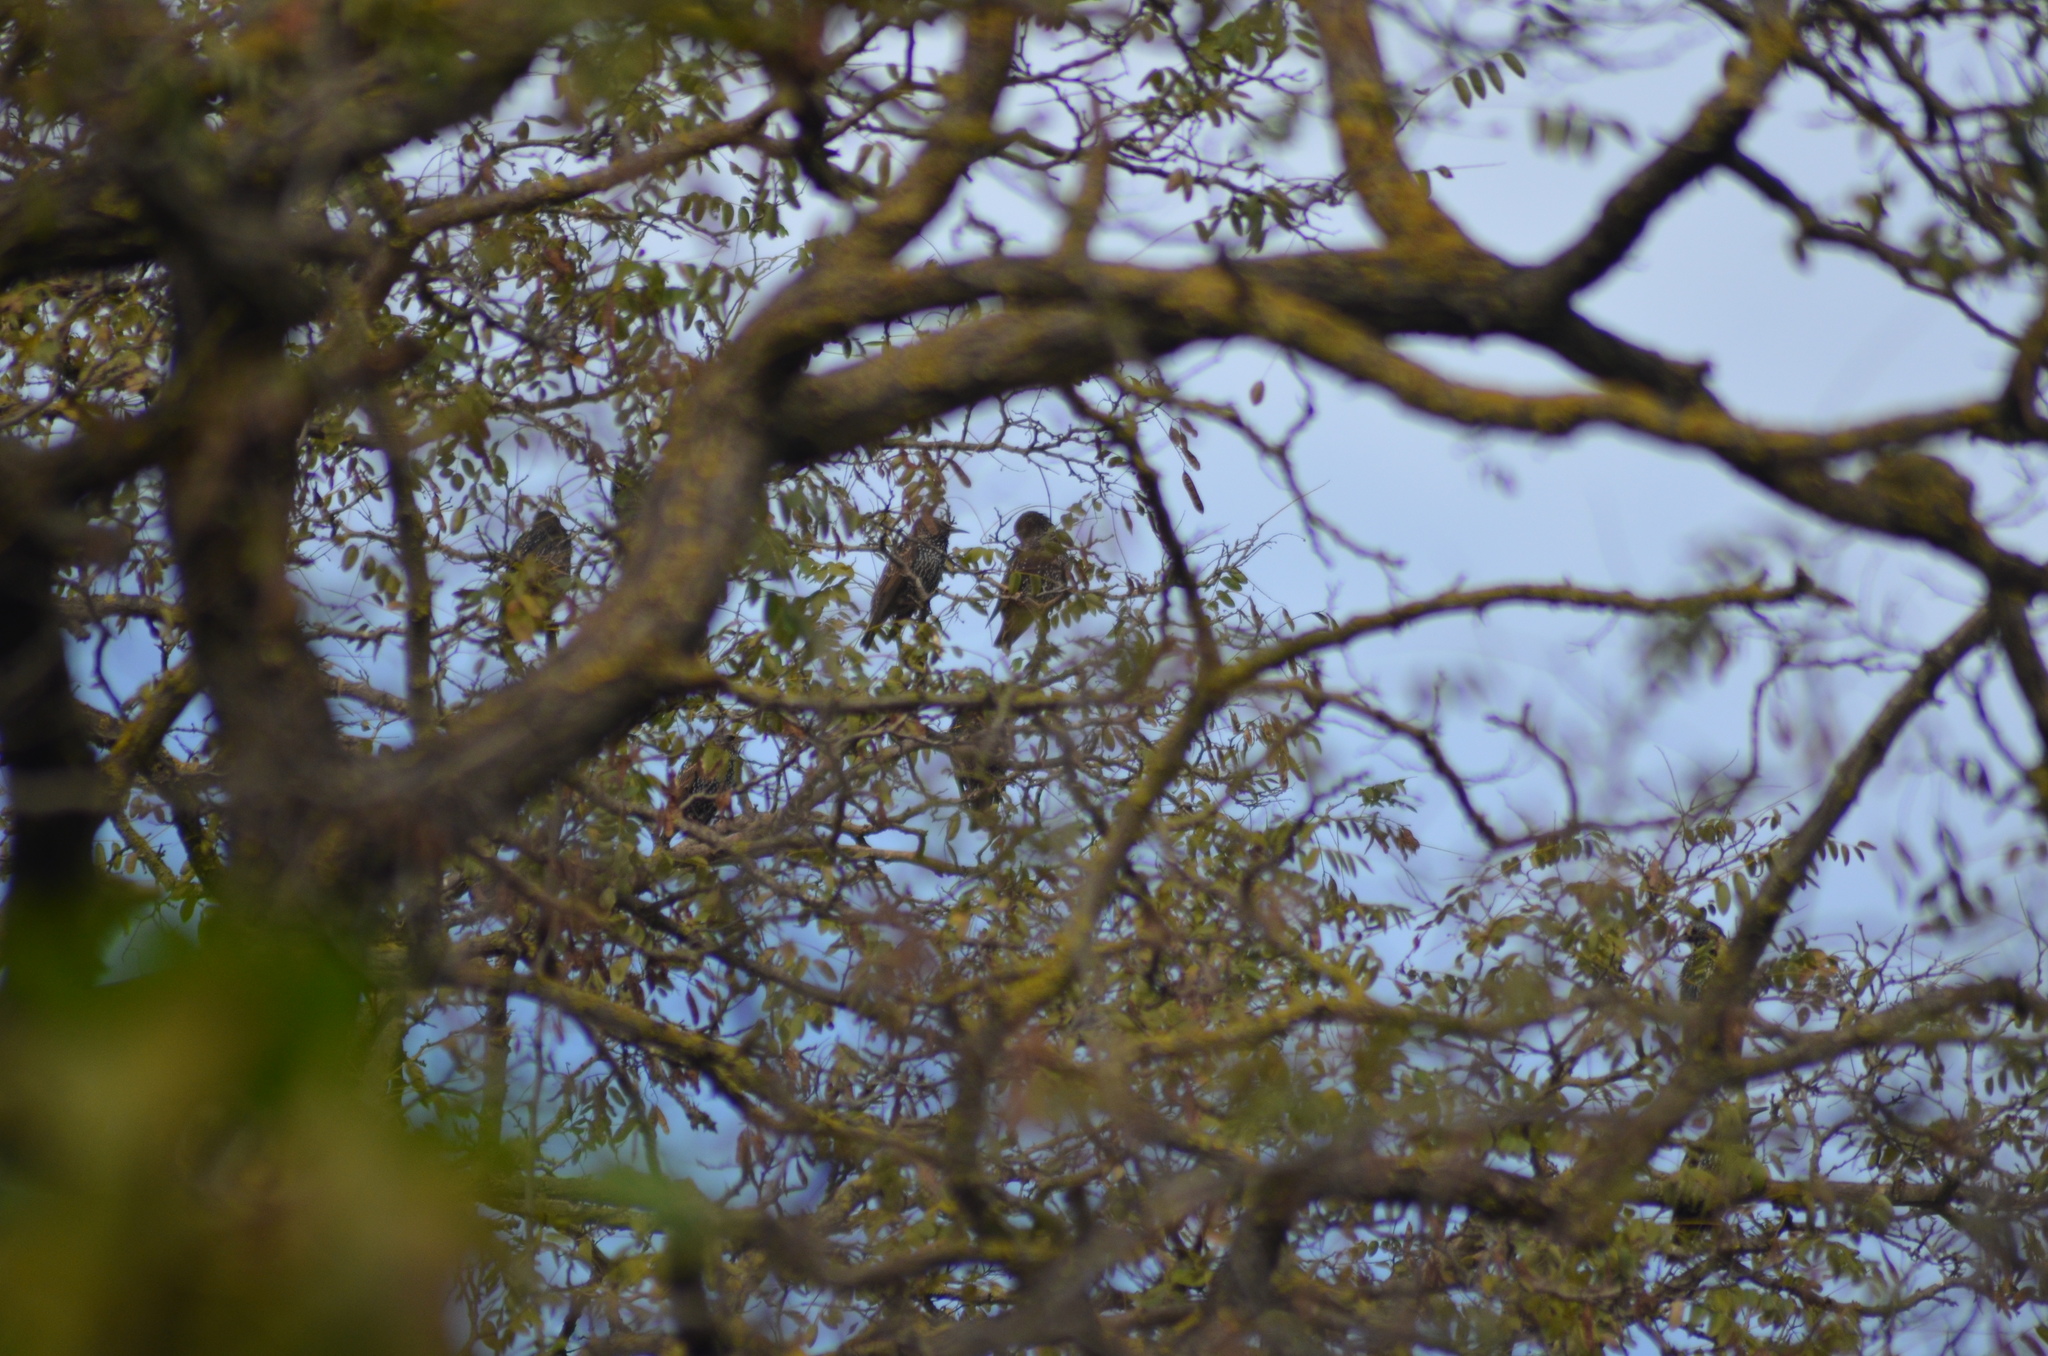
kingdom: Animalia
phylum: Chordata
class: Aves
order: Passeriformes
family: Sturnidae
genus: Sturnus
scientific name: Sturnus vulgaris
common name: Common starling
